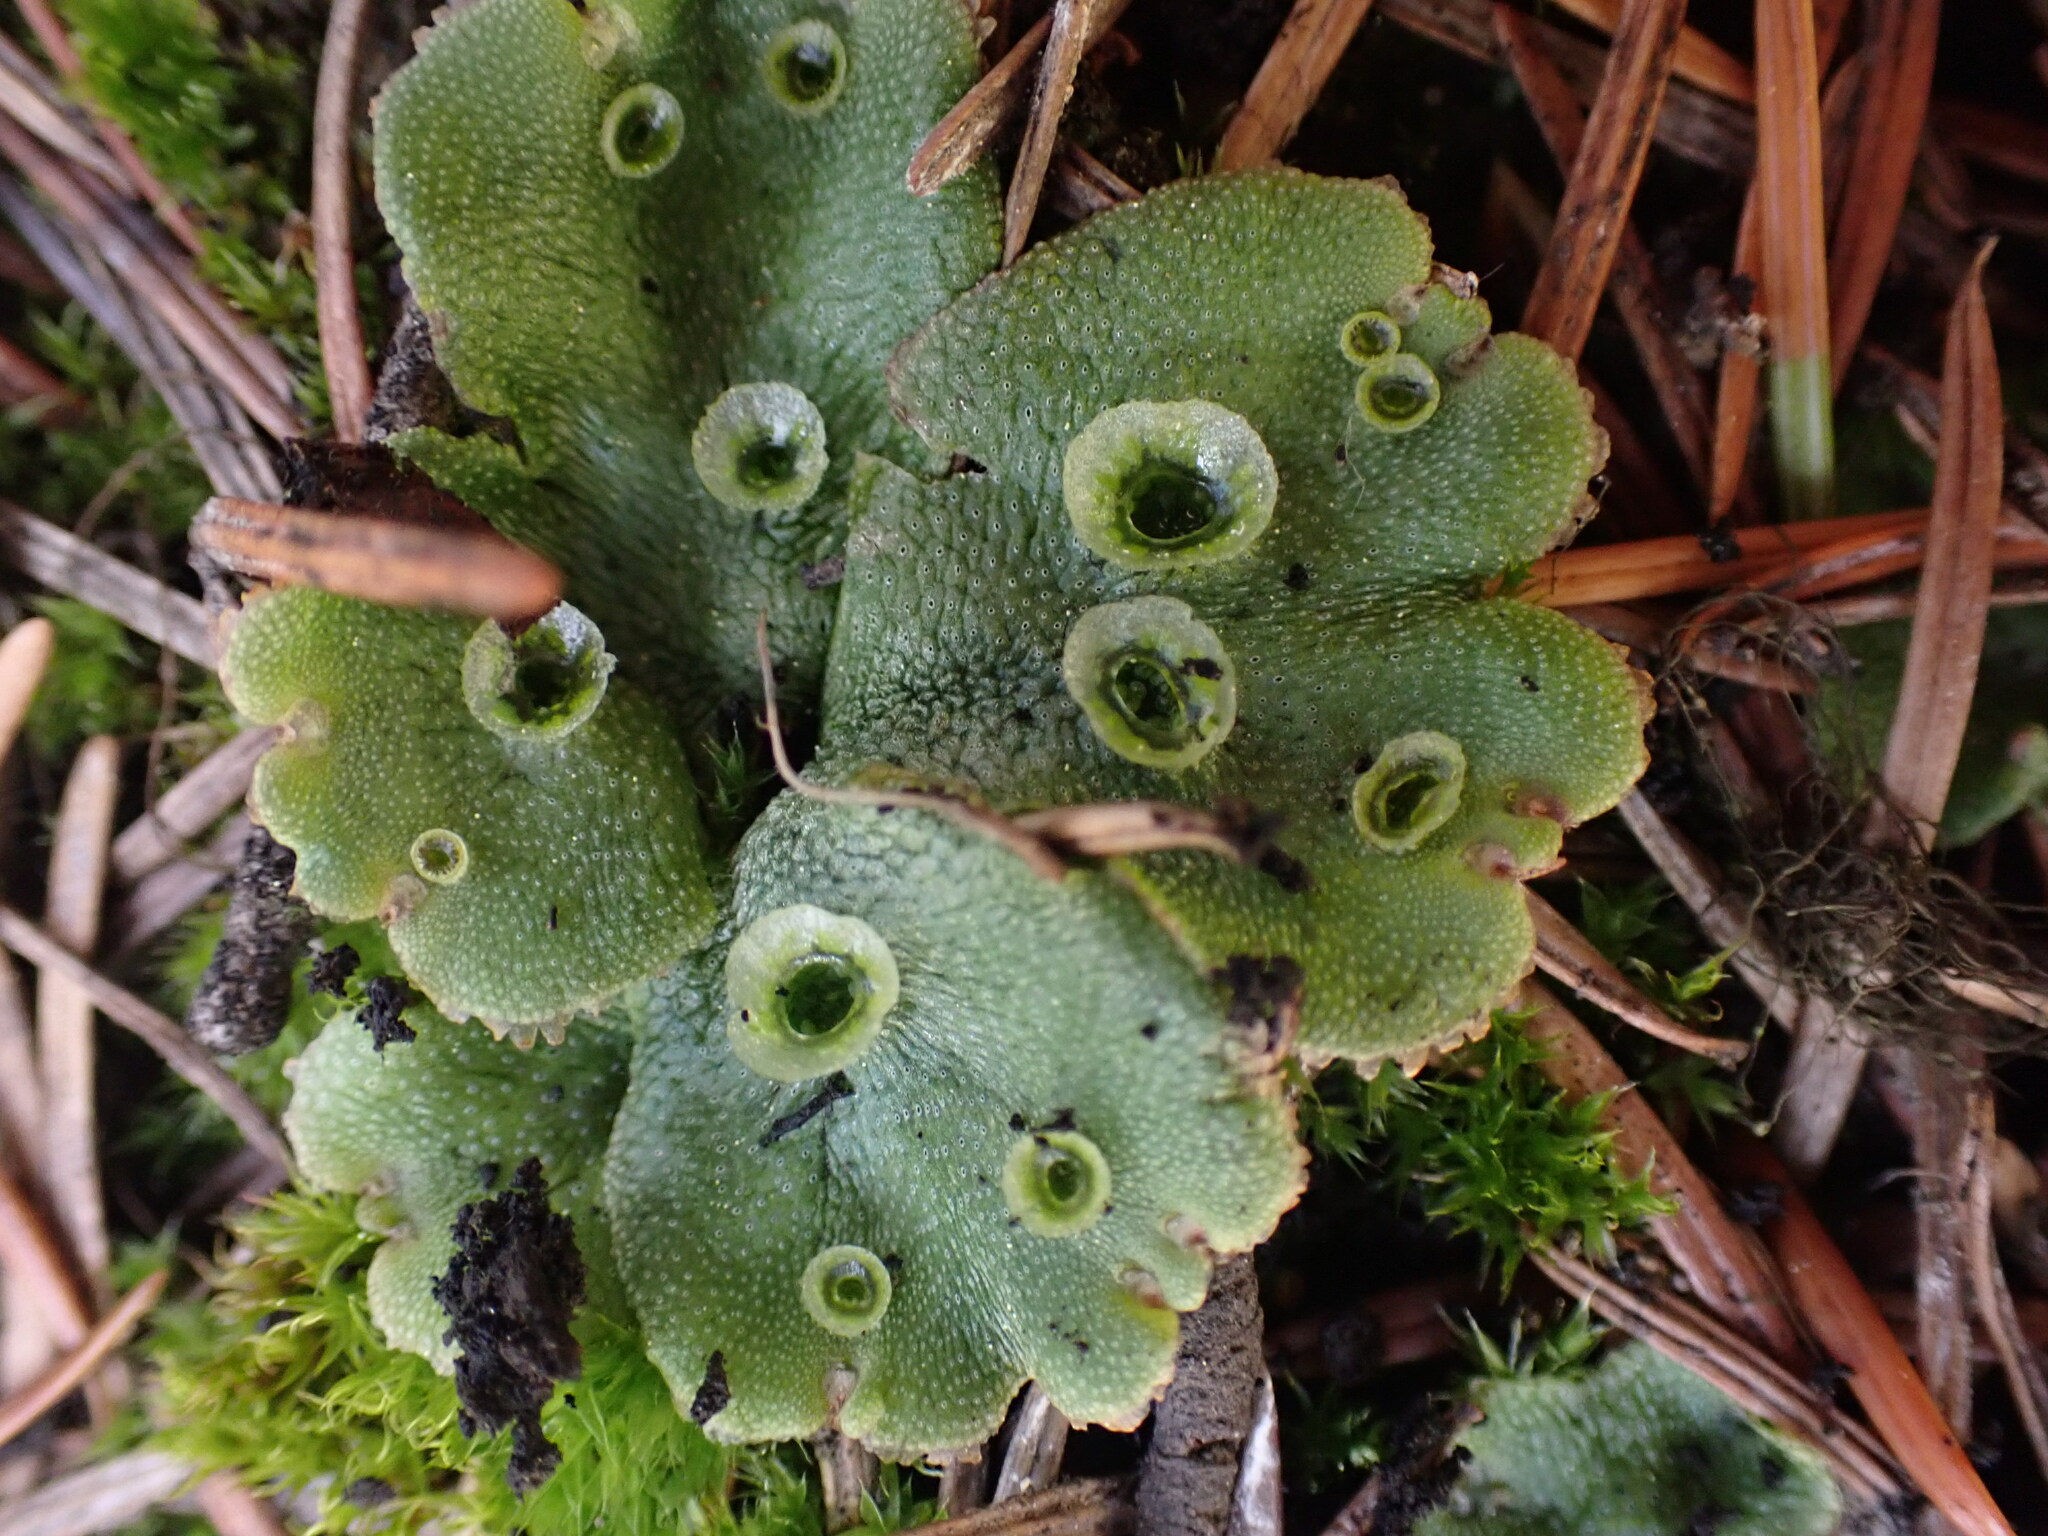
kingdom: Plantae
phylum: Marchantiophyta
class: Marchantiopsida
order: Marchantiales
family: Marchantiaceae
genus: Marchantia
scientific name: Marchantia polymorpha
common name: Common liverwort
